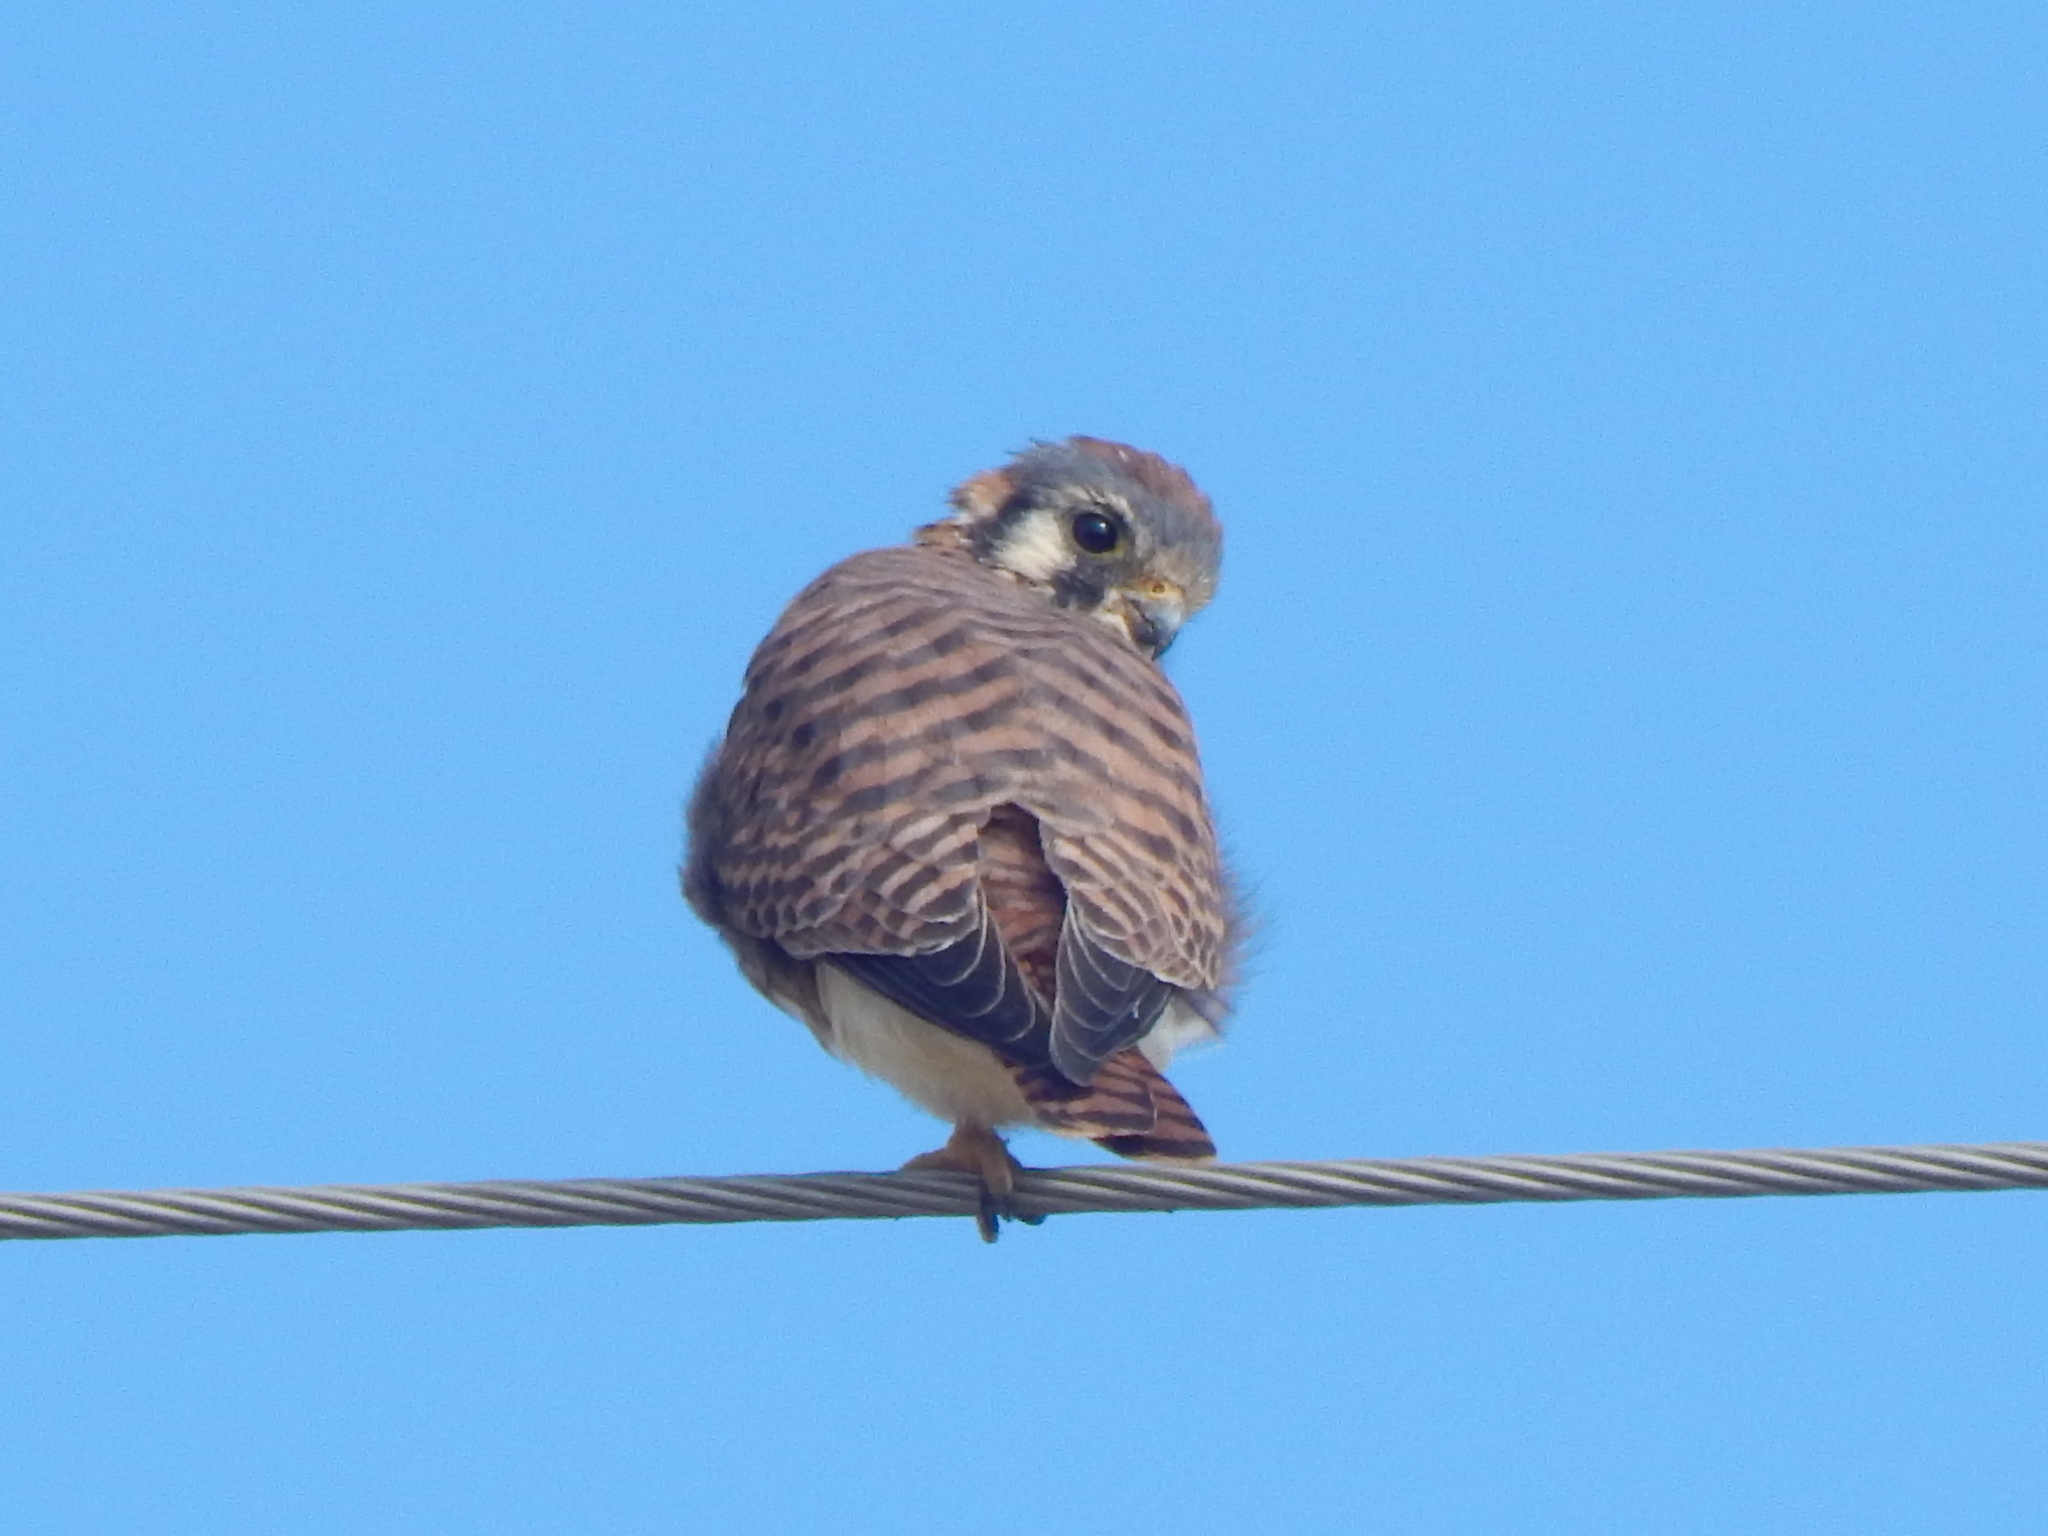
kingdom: Animalia
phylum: Chordata
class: Aves
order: Falconiformes
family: Falconidae
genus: Falco
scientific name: Falco sparverius
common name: American kestrel
